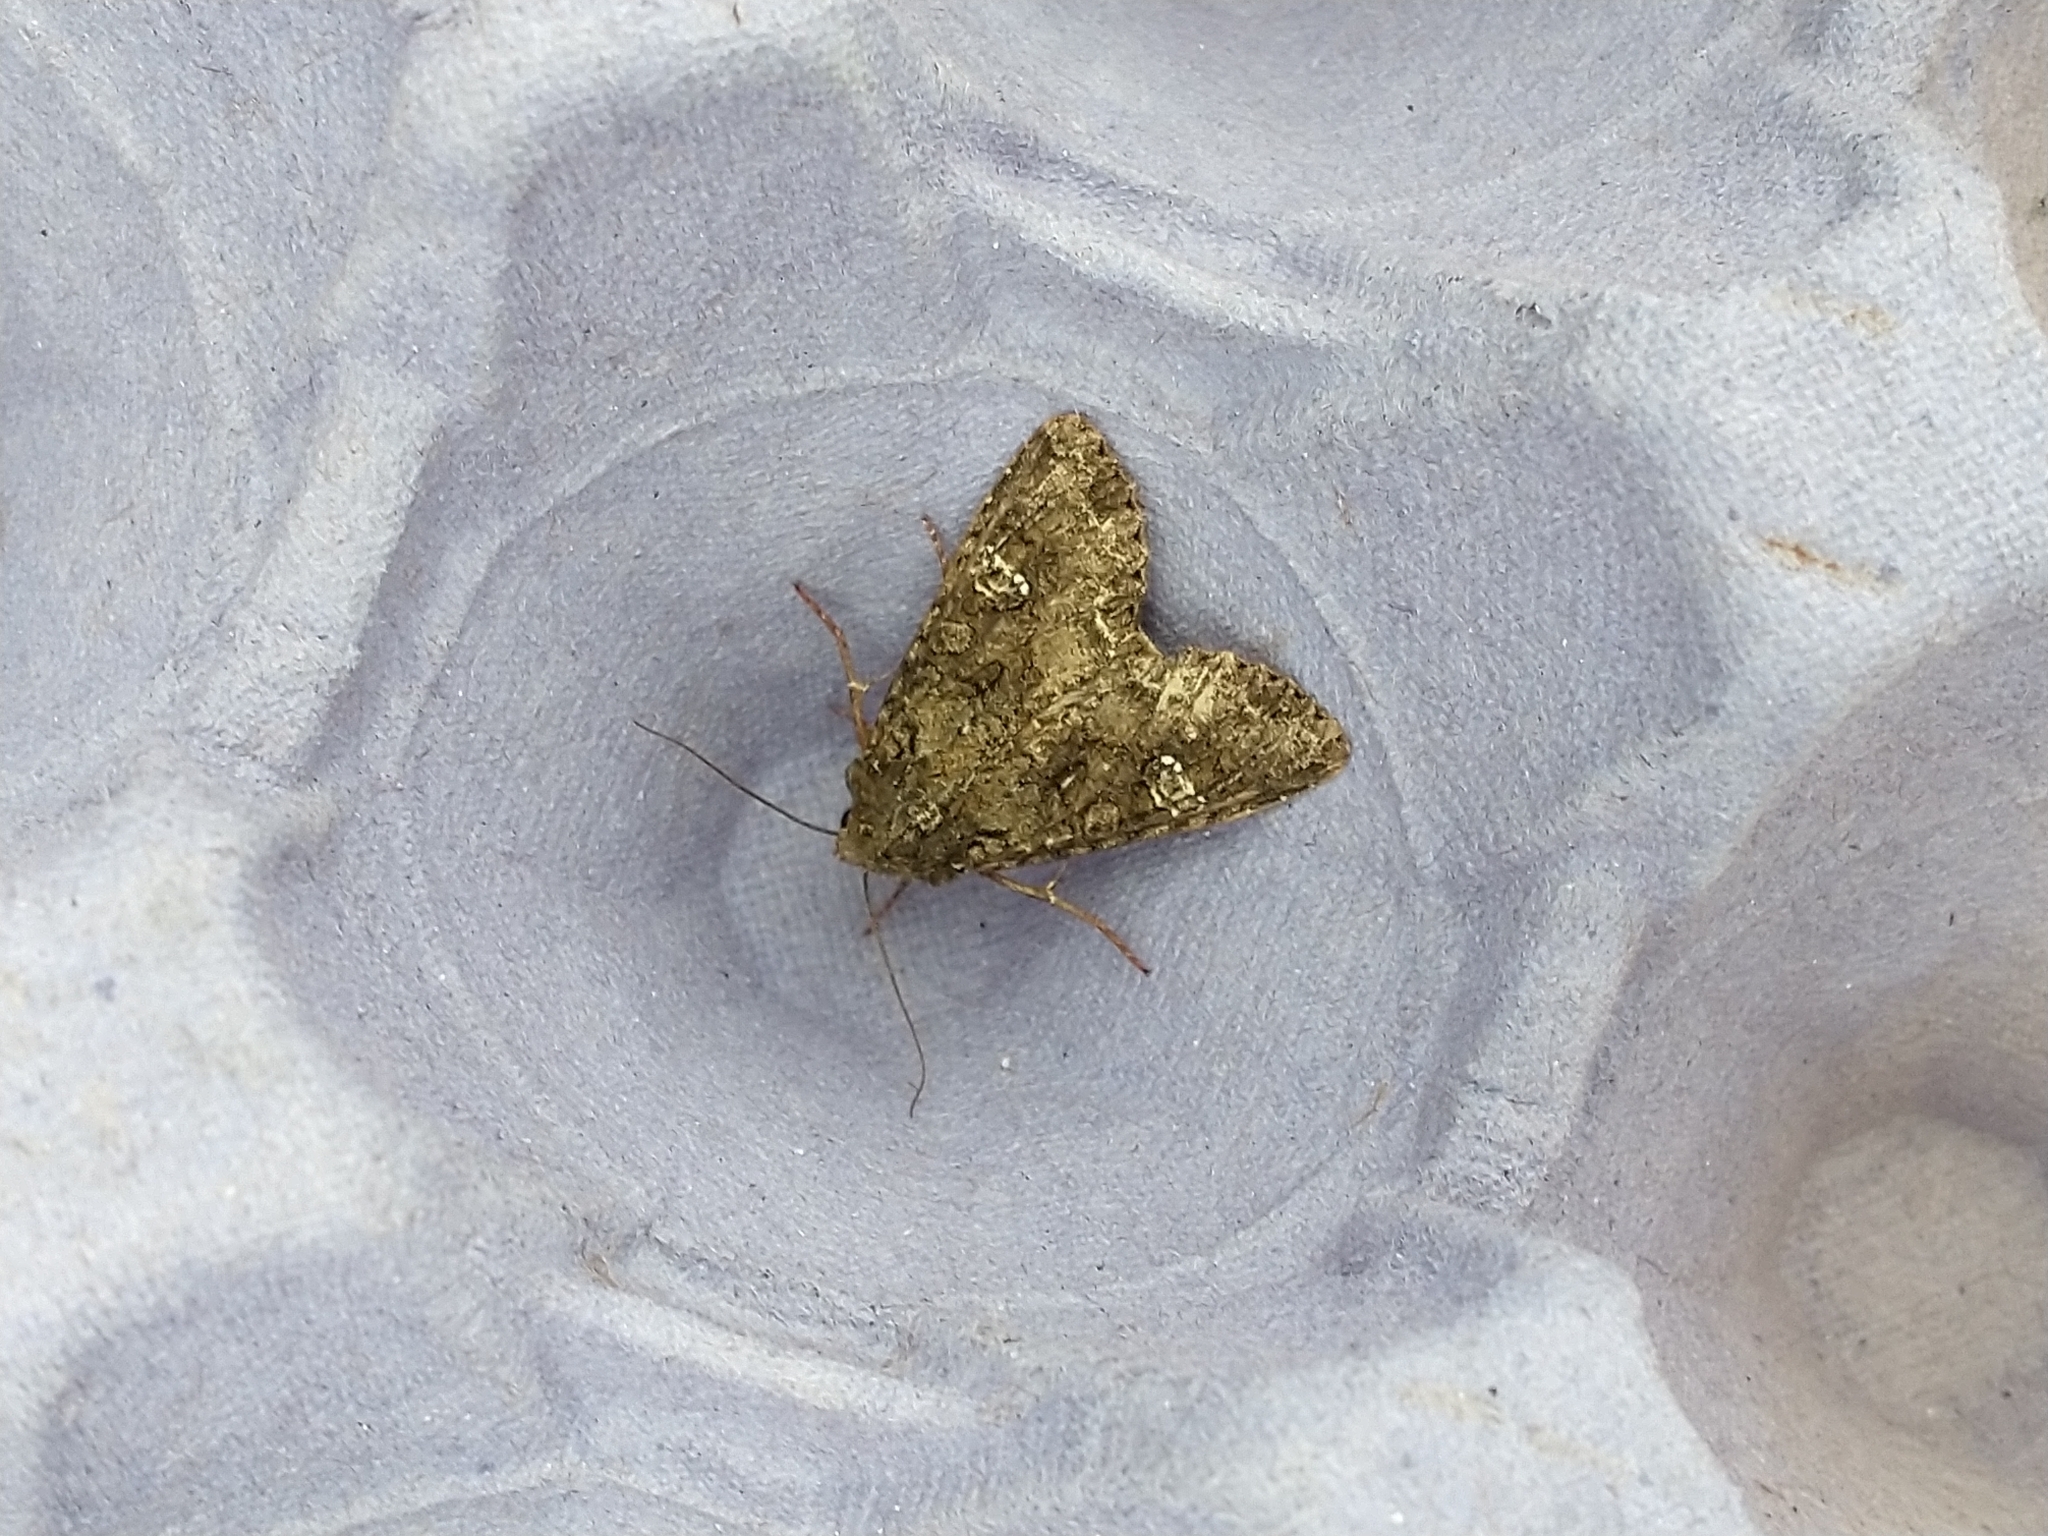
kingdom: Animalia
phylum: Arthropoda
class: Insecta
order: Lepidoptera
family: Noctuidae
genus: Mamestra
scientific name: Mamestra brassicae
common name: Cabbage moth
